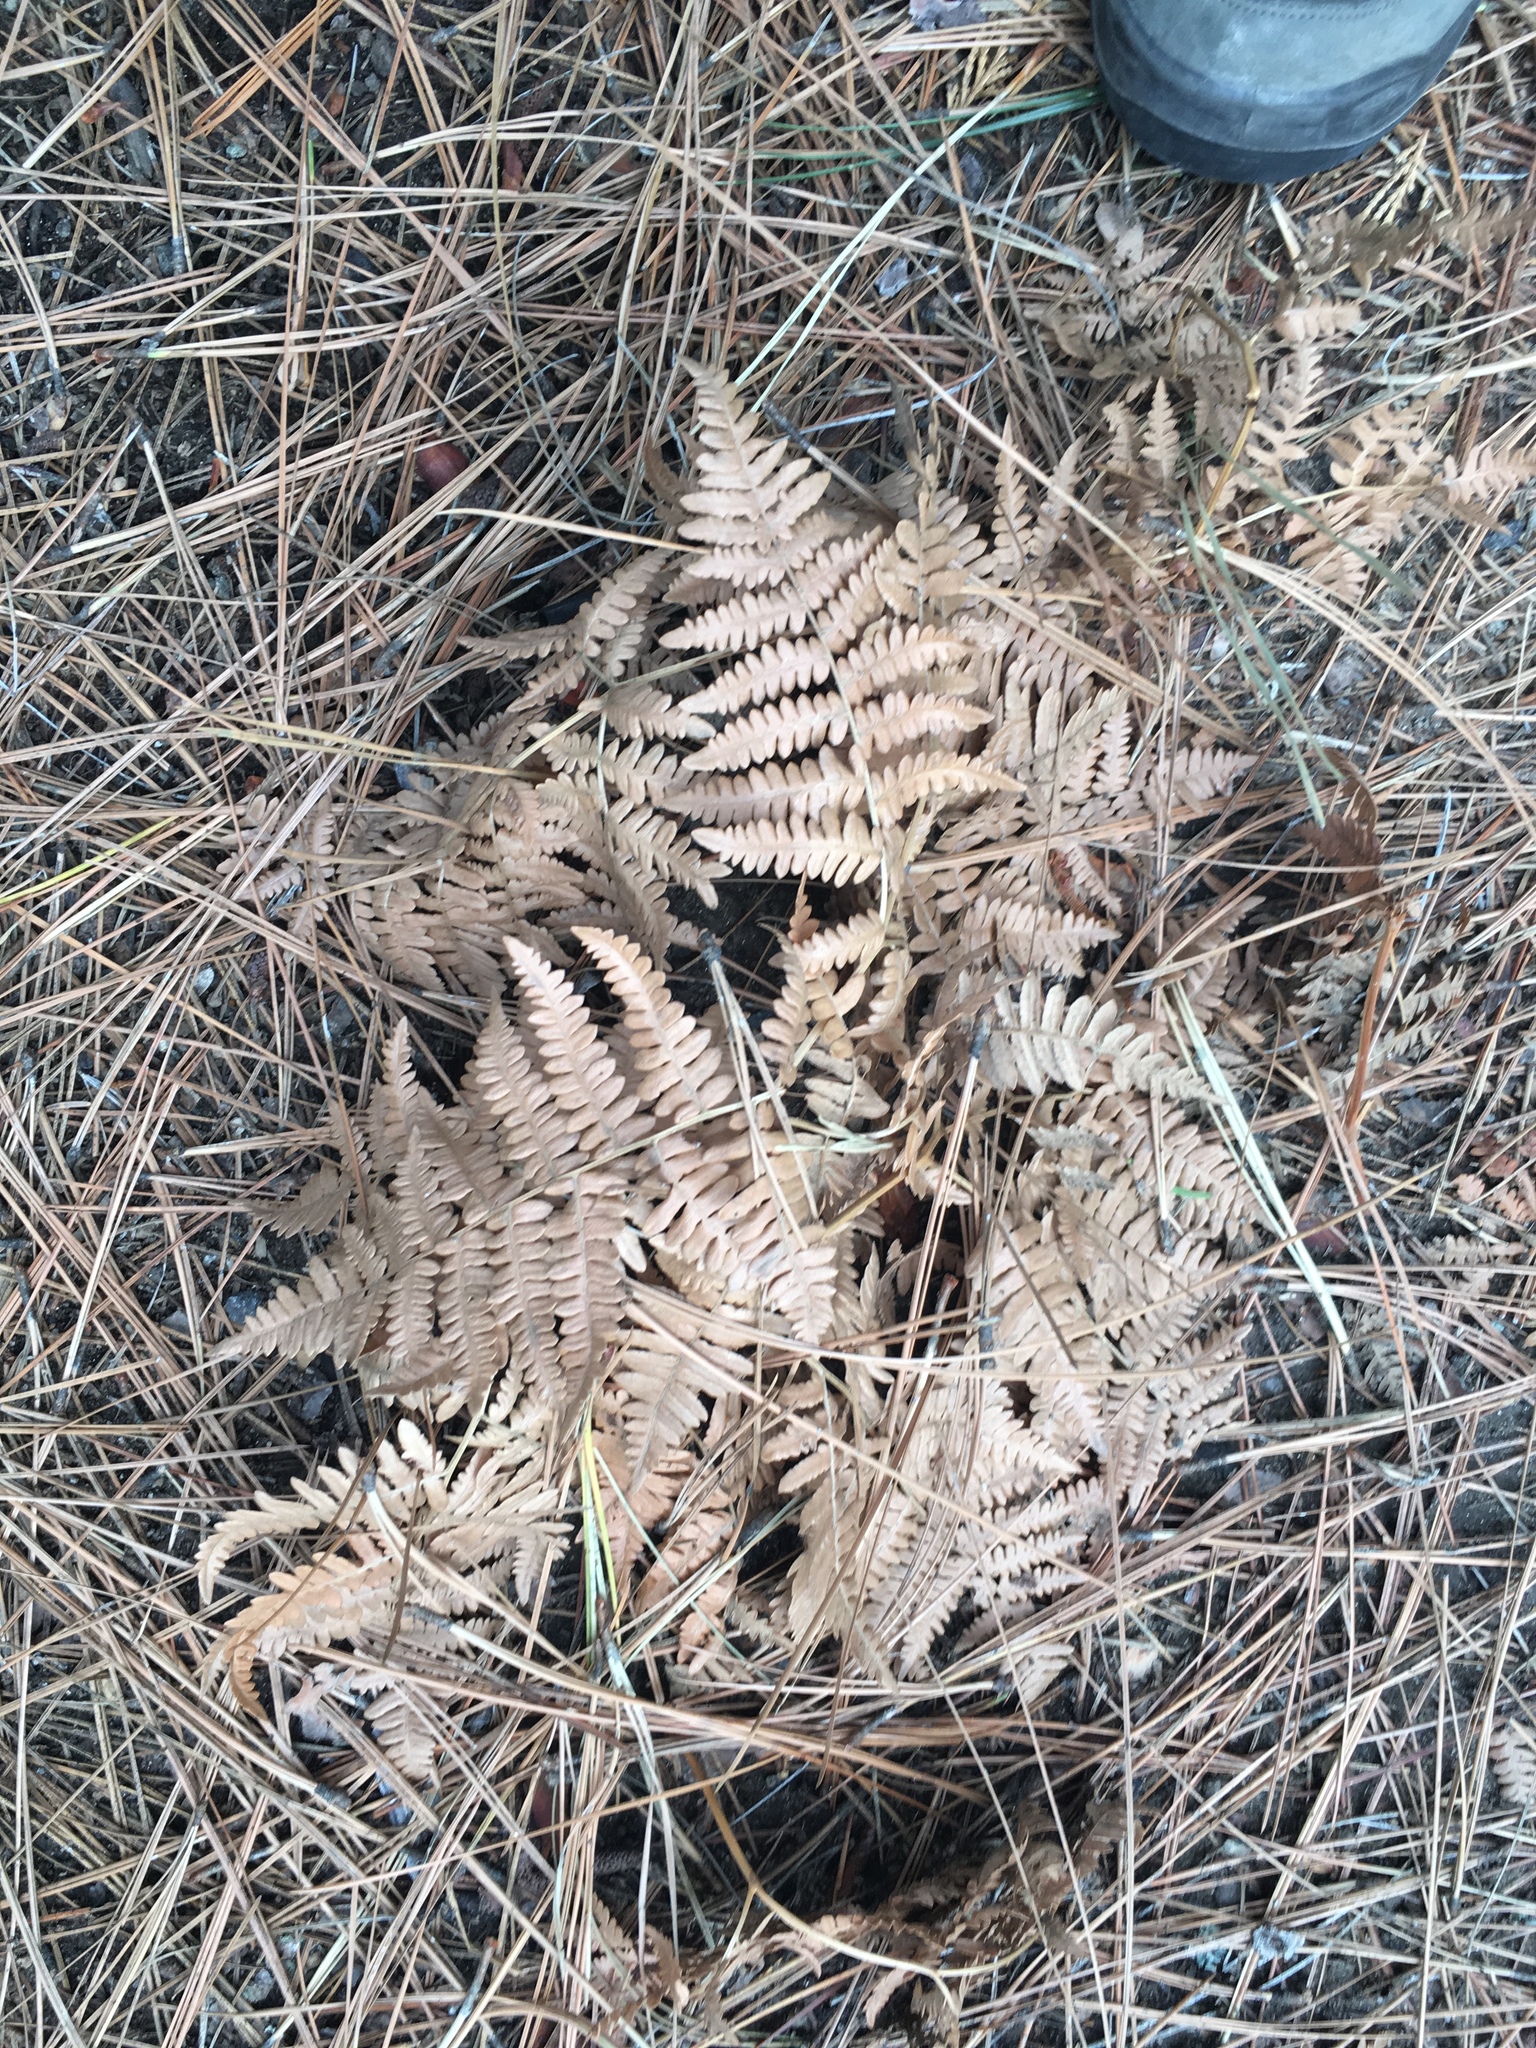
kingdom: Plantae
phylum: Tracheophyta
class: Polypodiopsida
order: Polypodiales
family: Dennstaedtiaceae
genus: Pteridium
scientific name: Pteridium aquilinum
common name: Bracken
